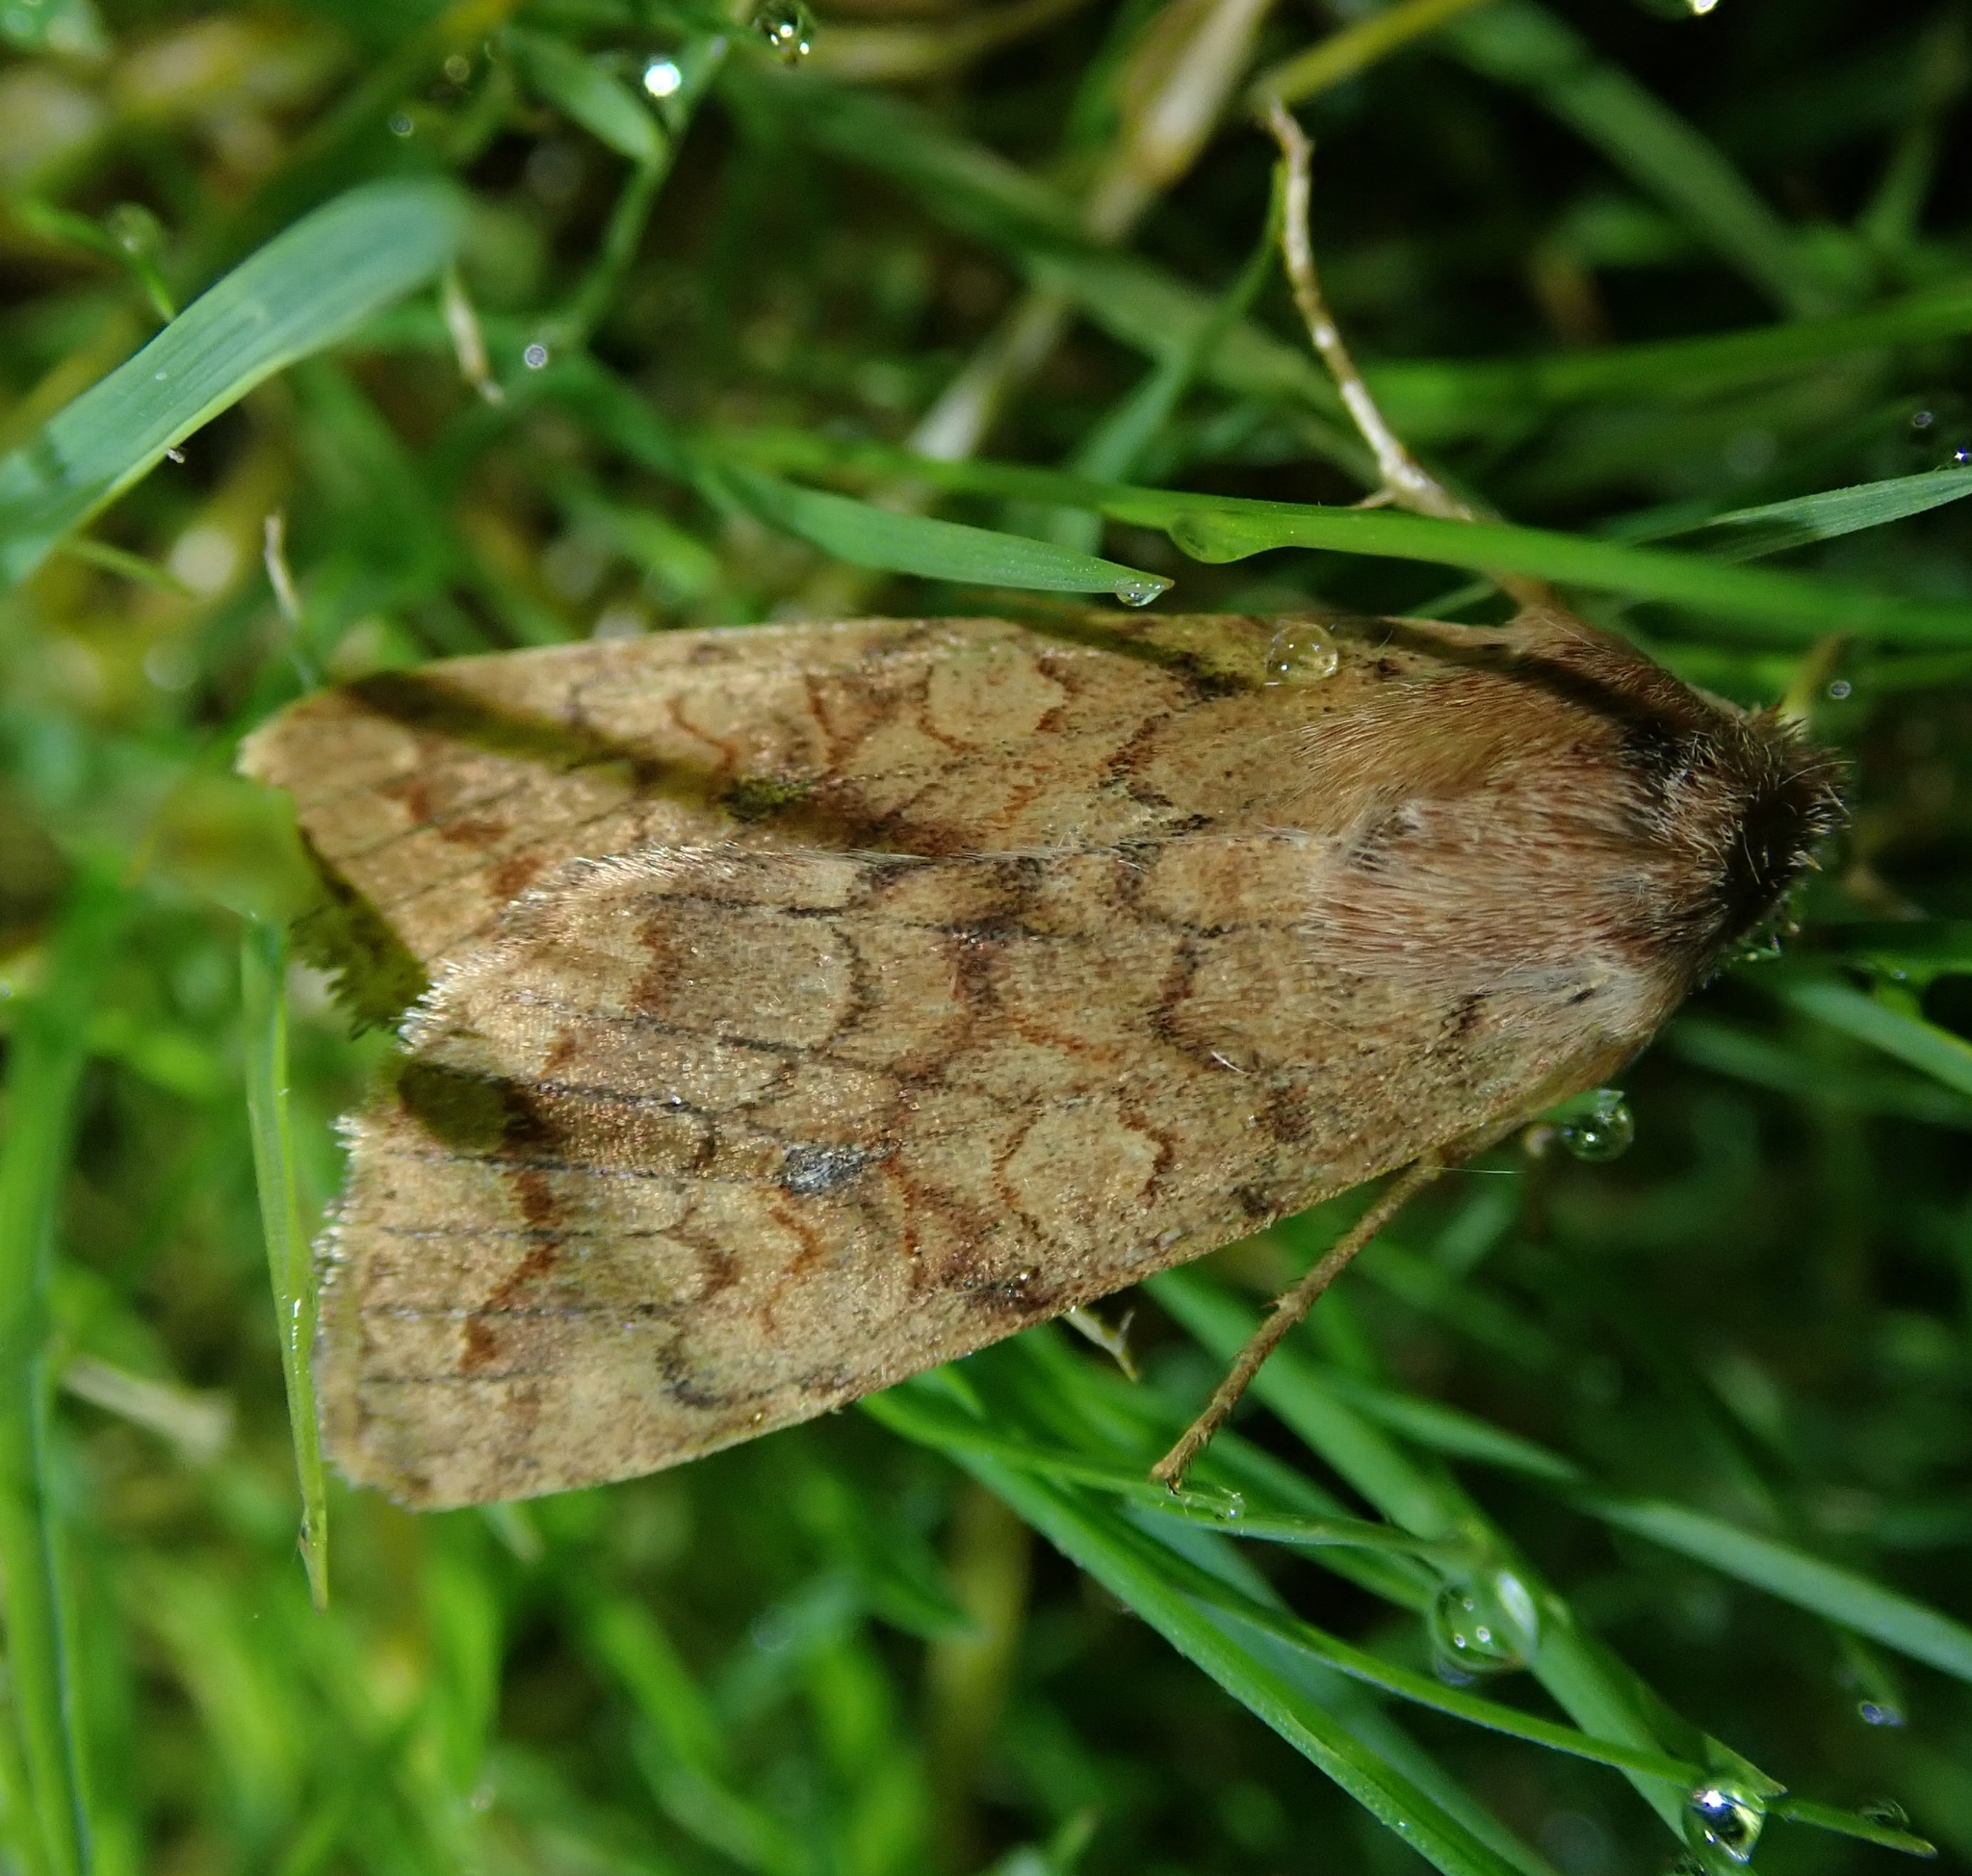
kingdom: Animalia
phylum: Arthropoda
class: Insecta
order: Lepidoptera
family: Noctuidae
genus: Sunira
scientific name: Sunira circellaris
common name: Brick
